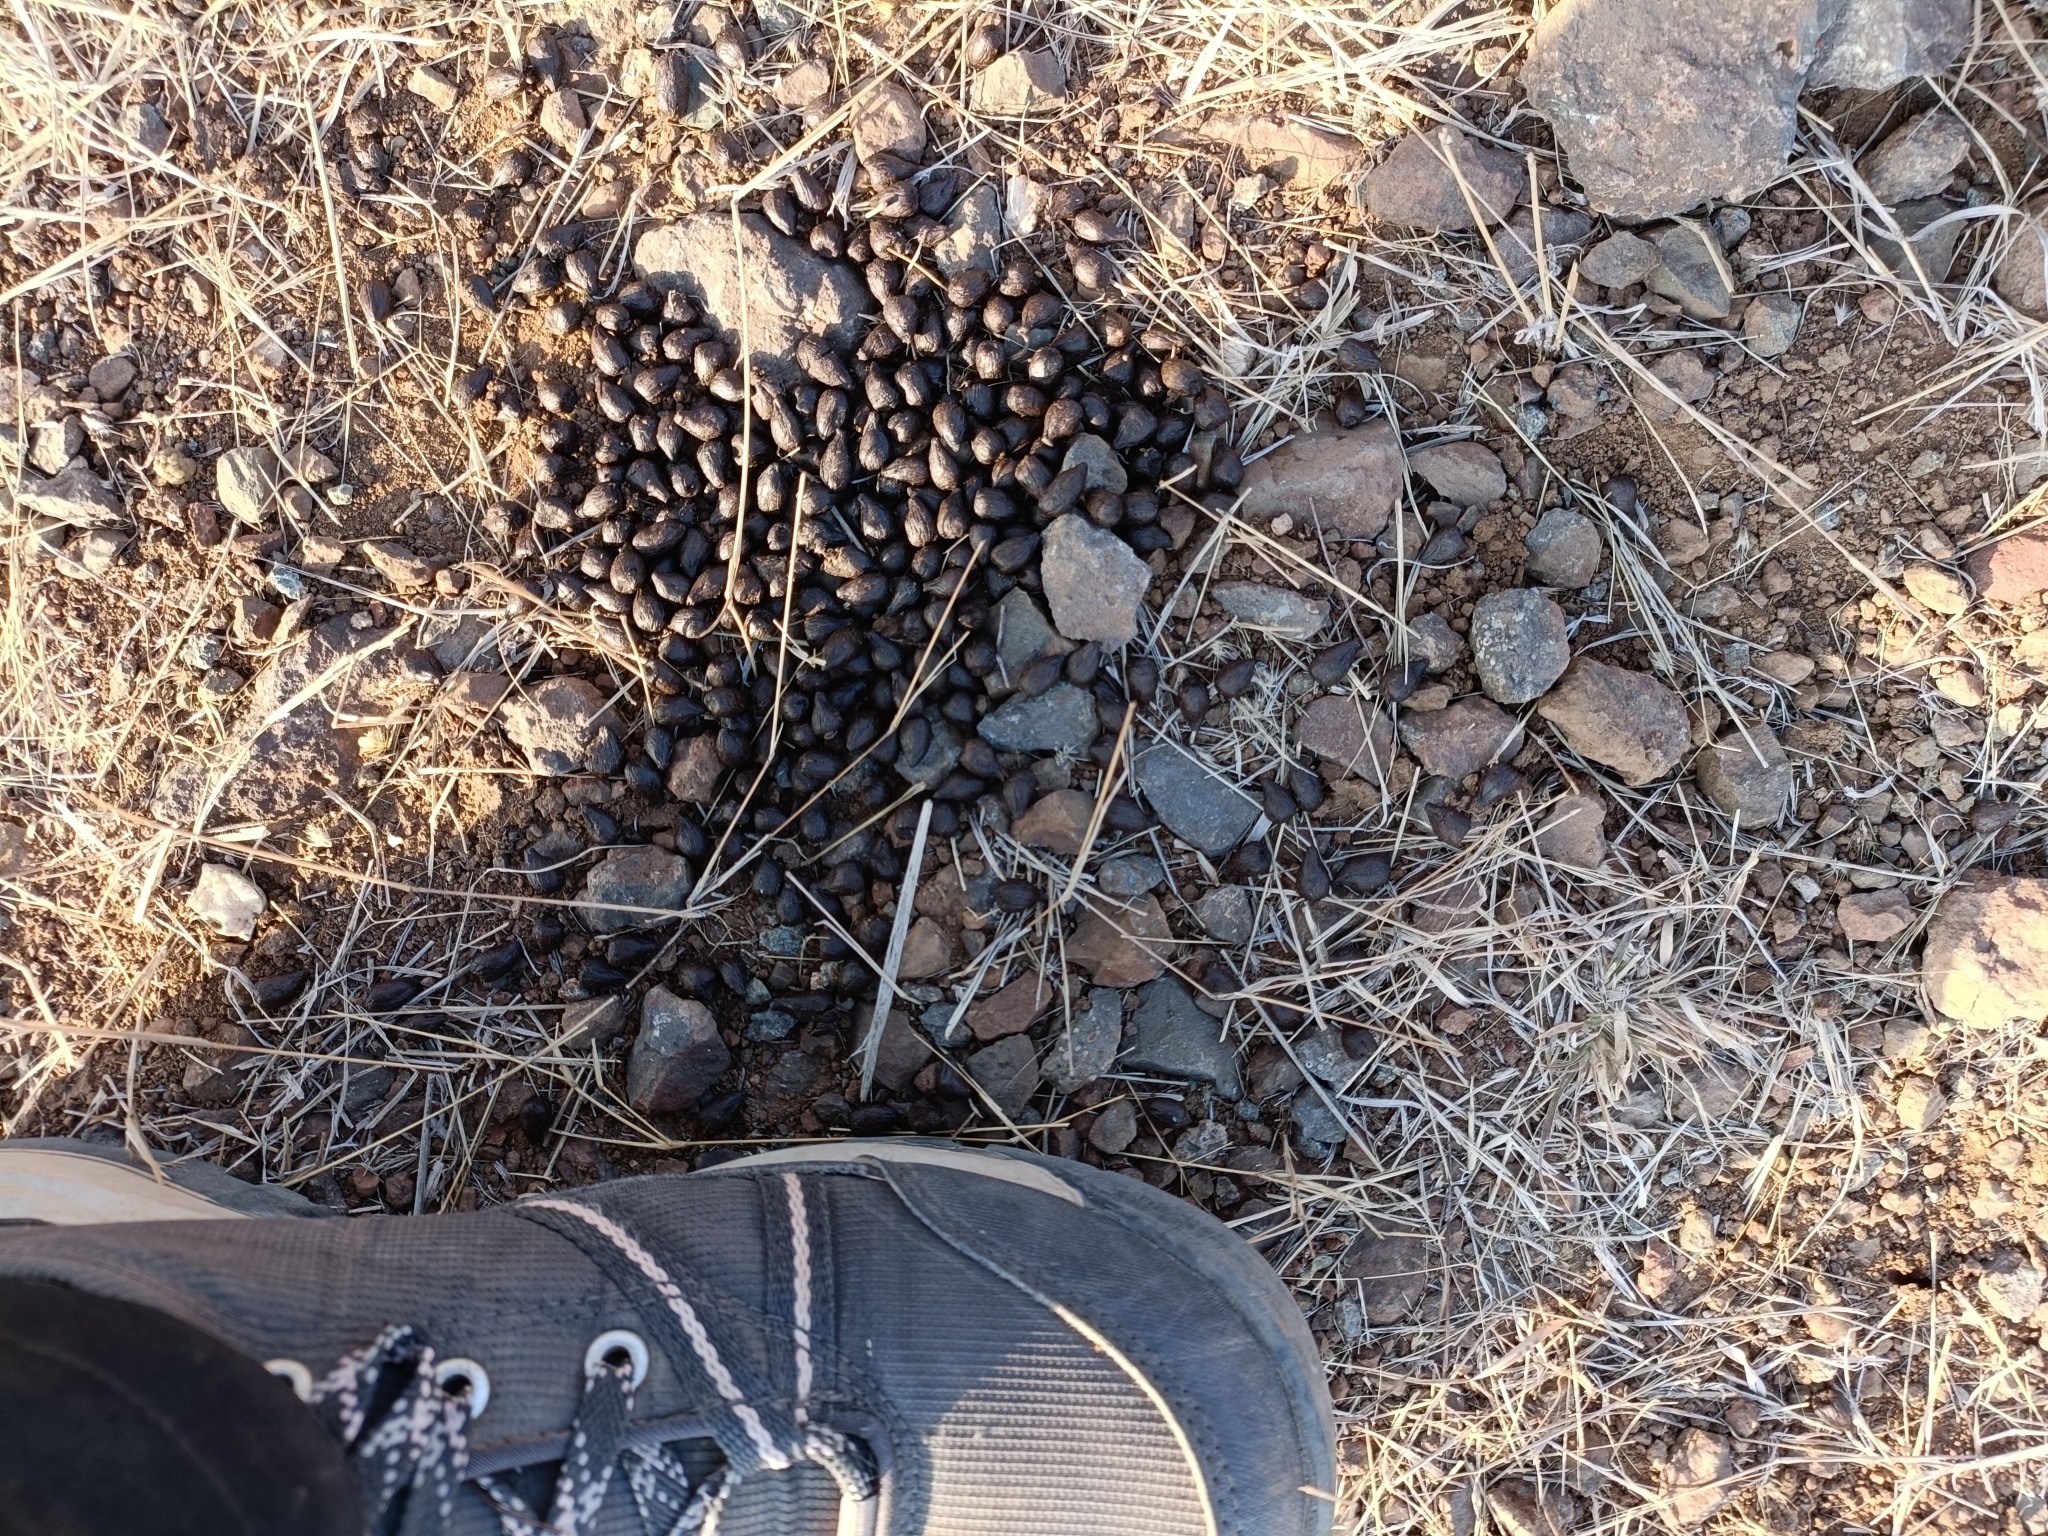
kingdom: Animalia
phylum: Chordata
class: Mammalia
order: Artiodactyla
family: Bovidae
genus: Gazella
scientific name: Gazella bennettii
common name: Indian gazelle
